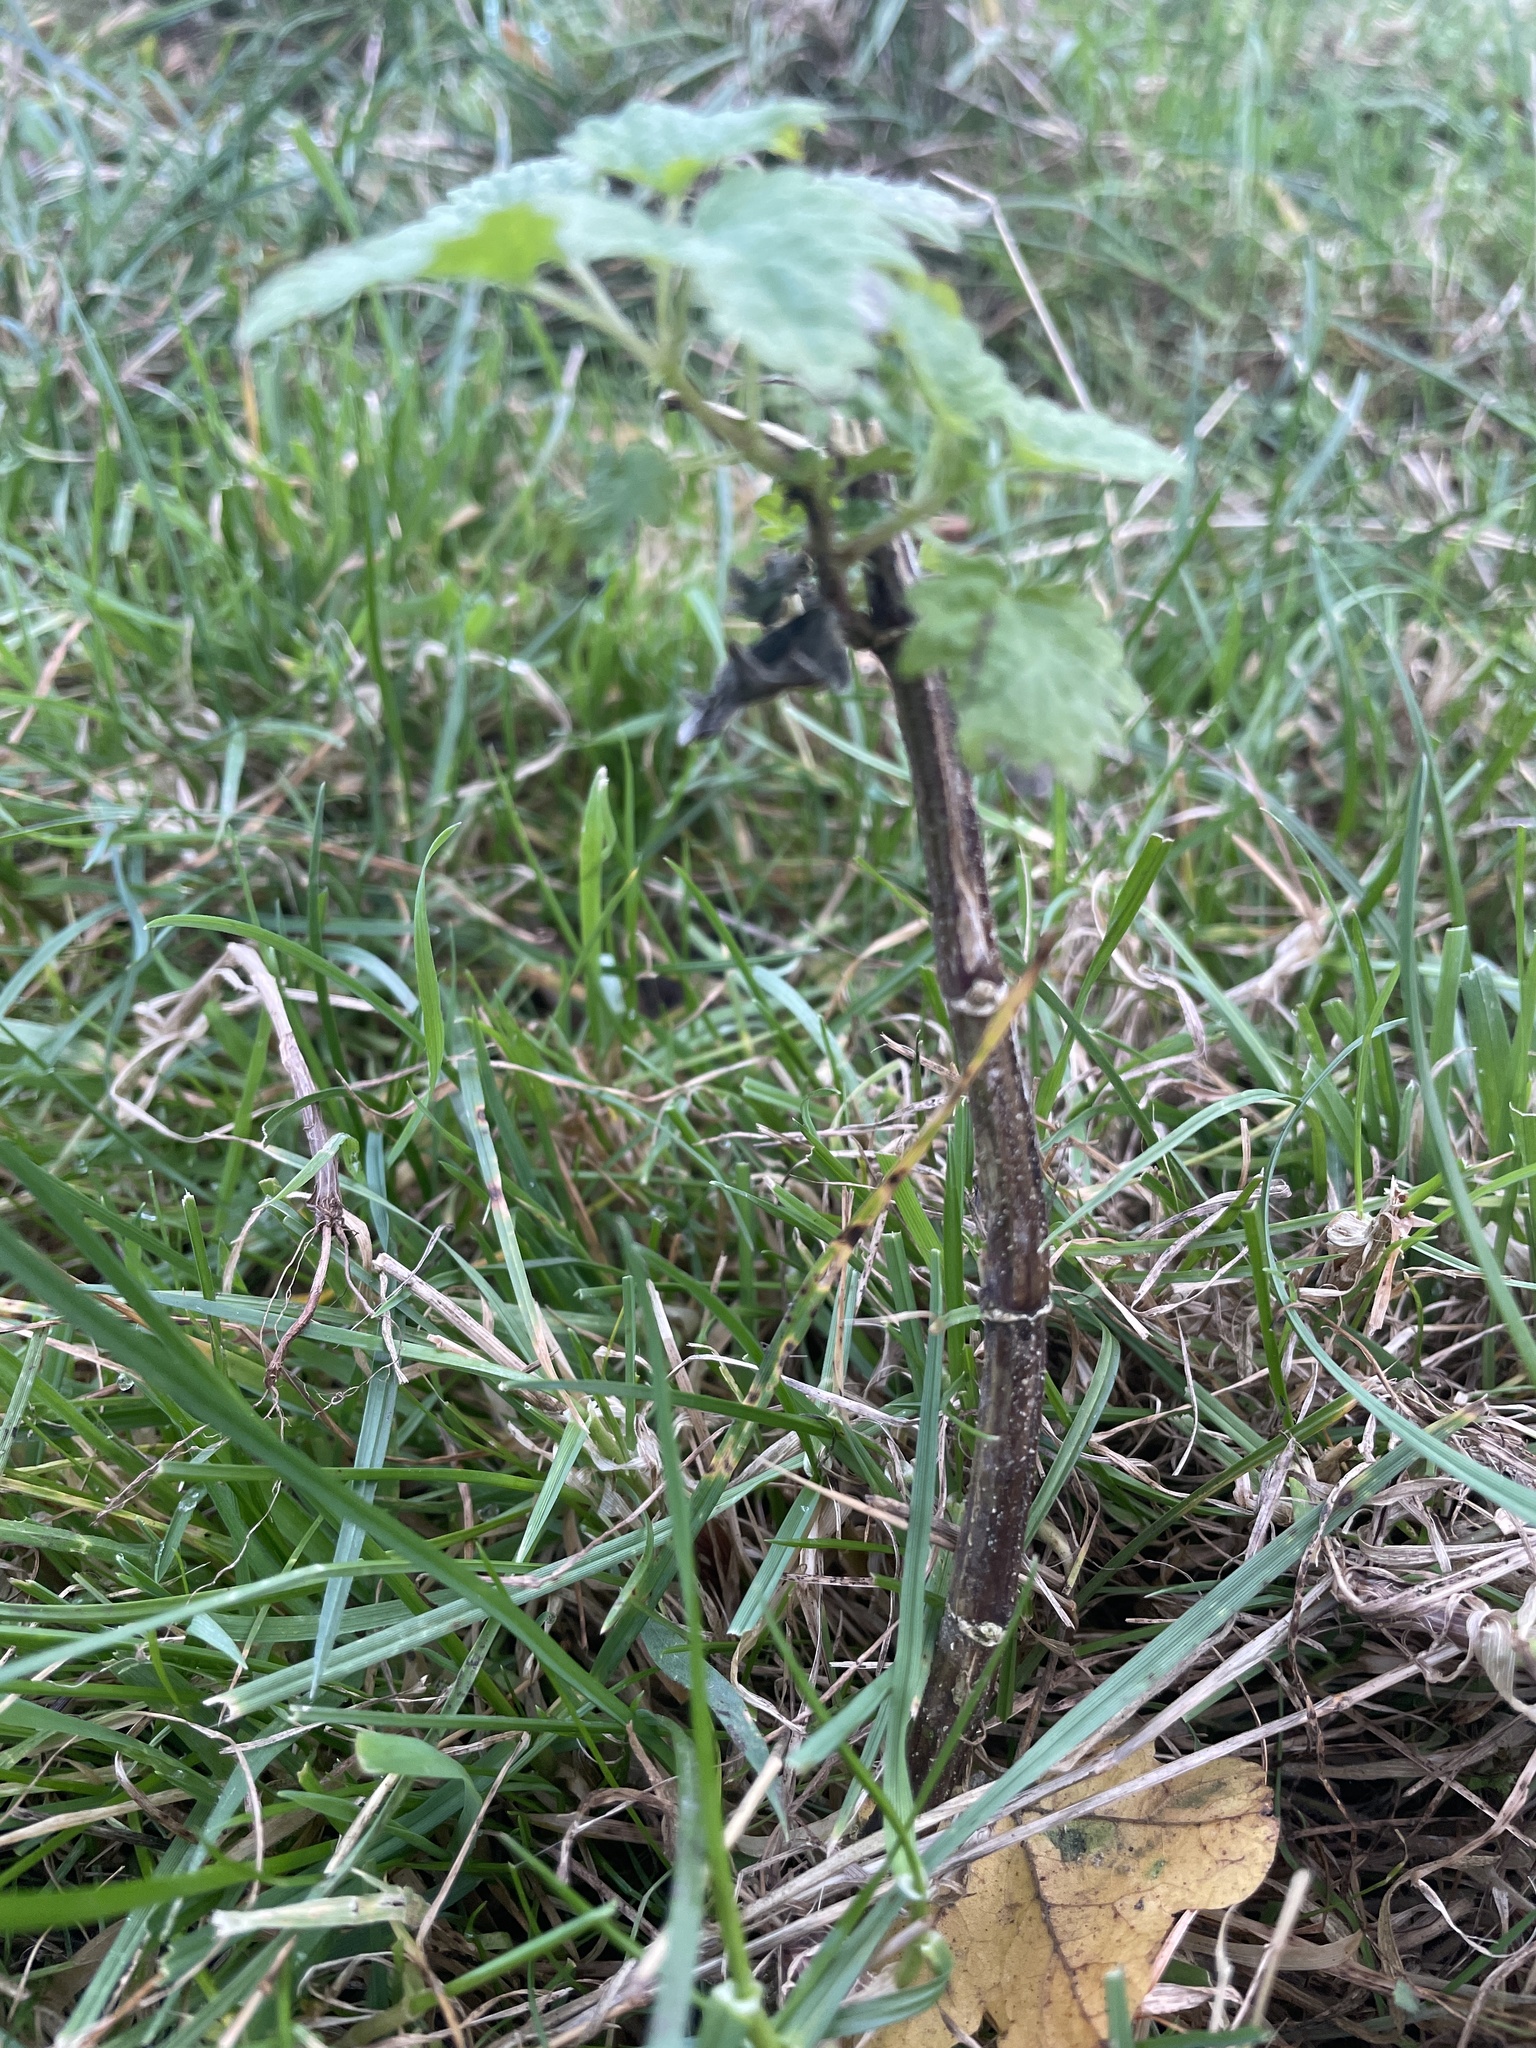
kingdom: Plantae
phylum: Tracheophyta
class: Magnoliopsida
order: Rosales
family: Urticaceae
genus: Urtica
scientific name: Urtica dioica
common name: Common nettle
